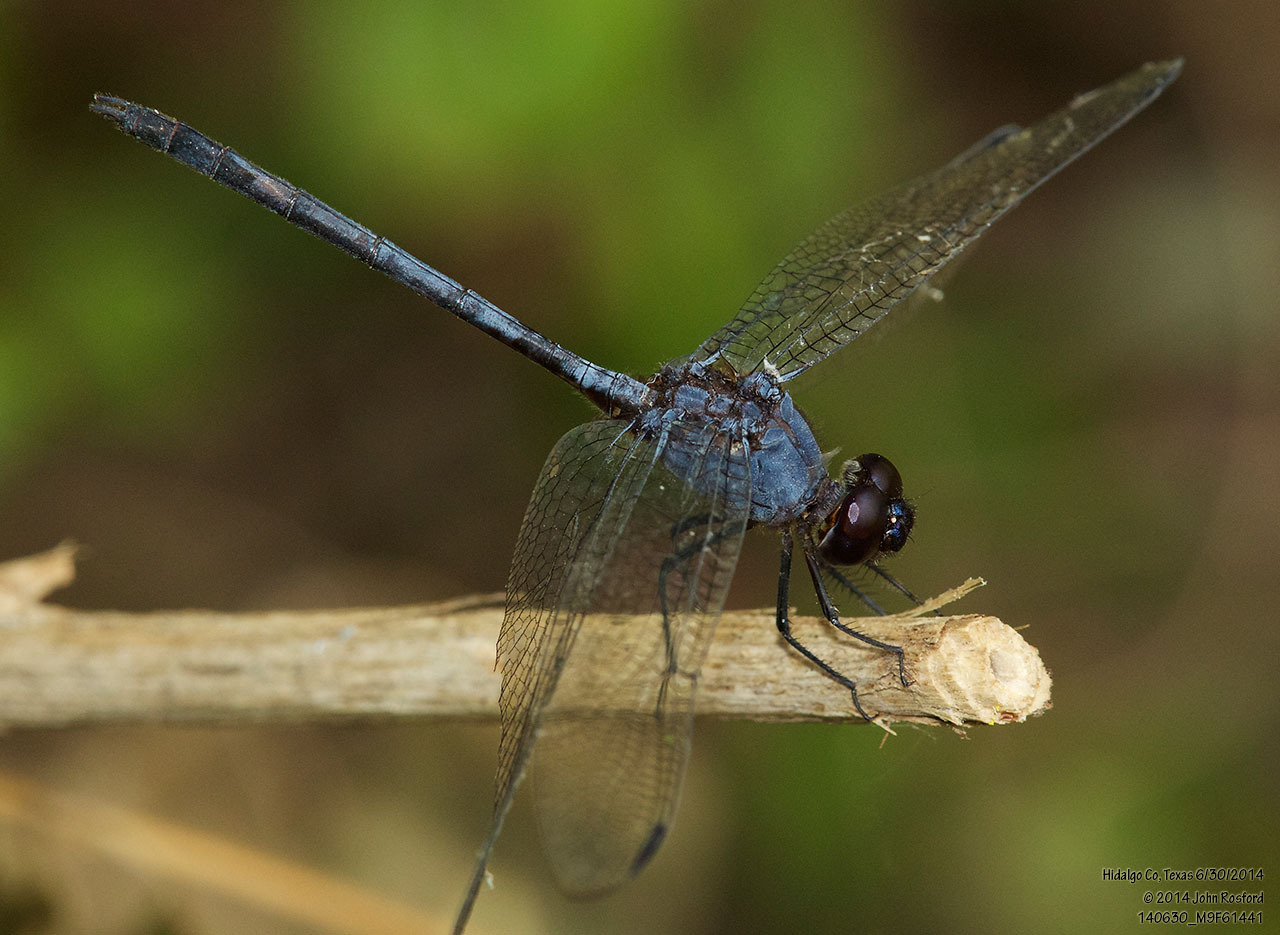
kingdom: Animalia
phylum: Arthropoda
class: Insecta
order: Odonata
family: Libellulidae
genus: Dythemis
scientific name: Dythemis nigrescens
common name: Black setwing
